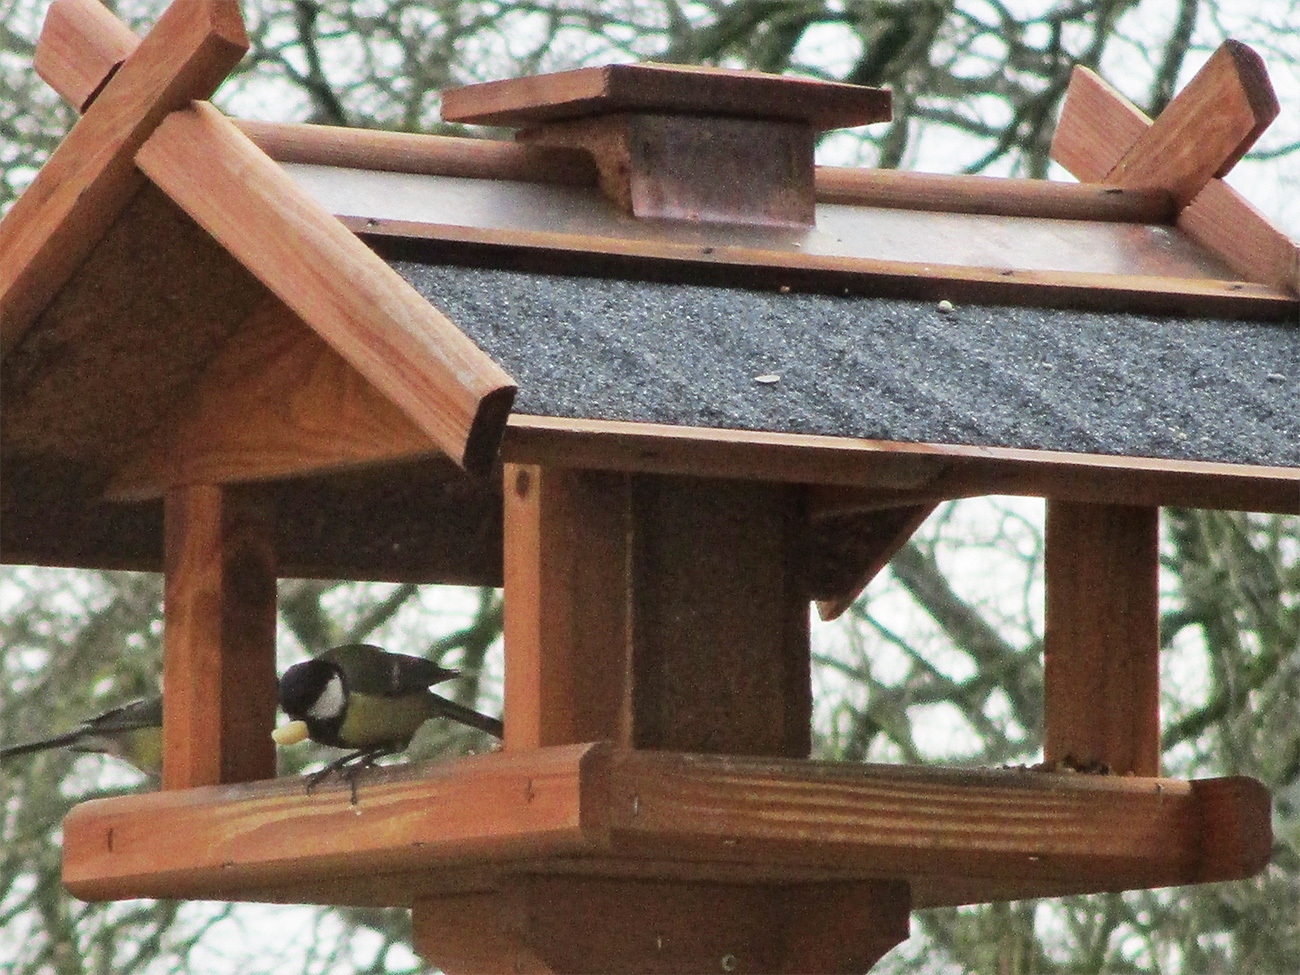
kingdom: Animalia
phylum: Chordata
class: Aves
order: Passeriformes
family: Paridae
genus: Parus
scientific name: Parus major
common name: Great tit
